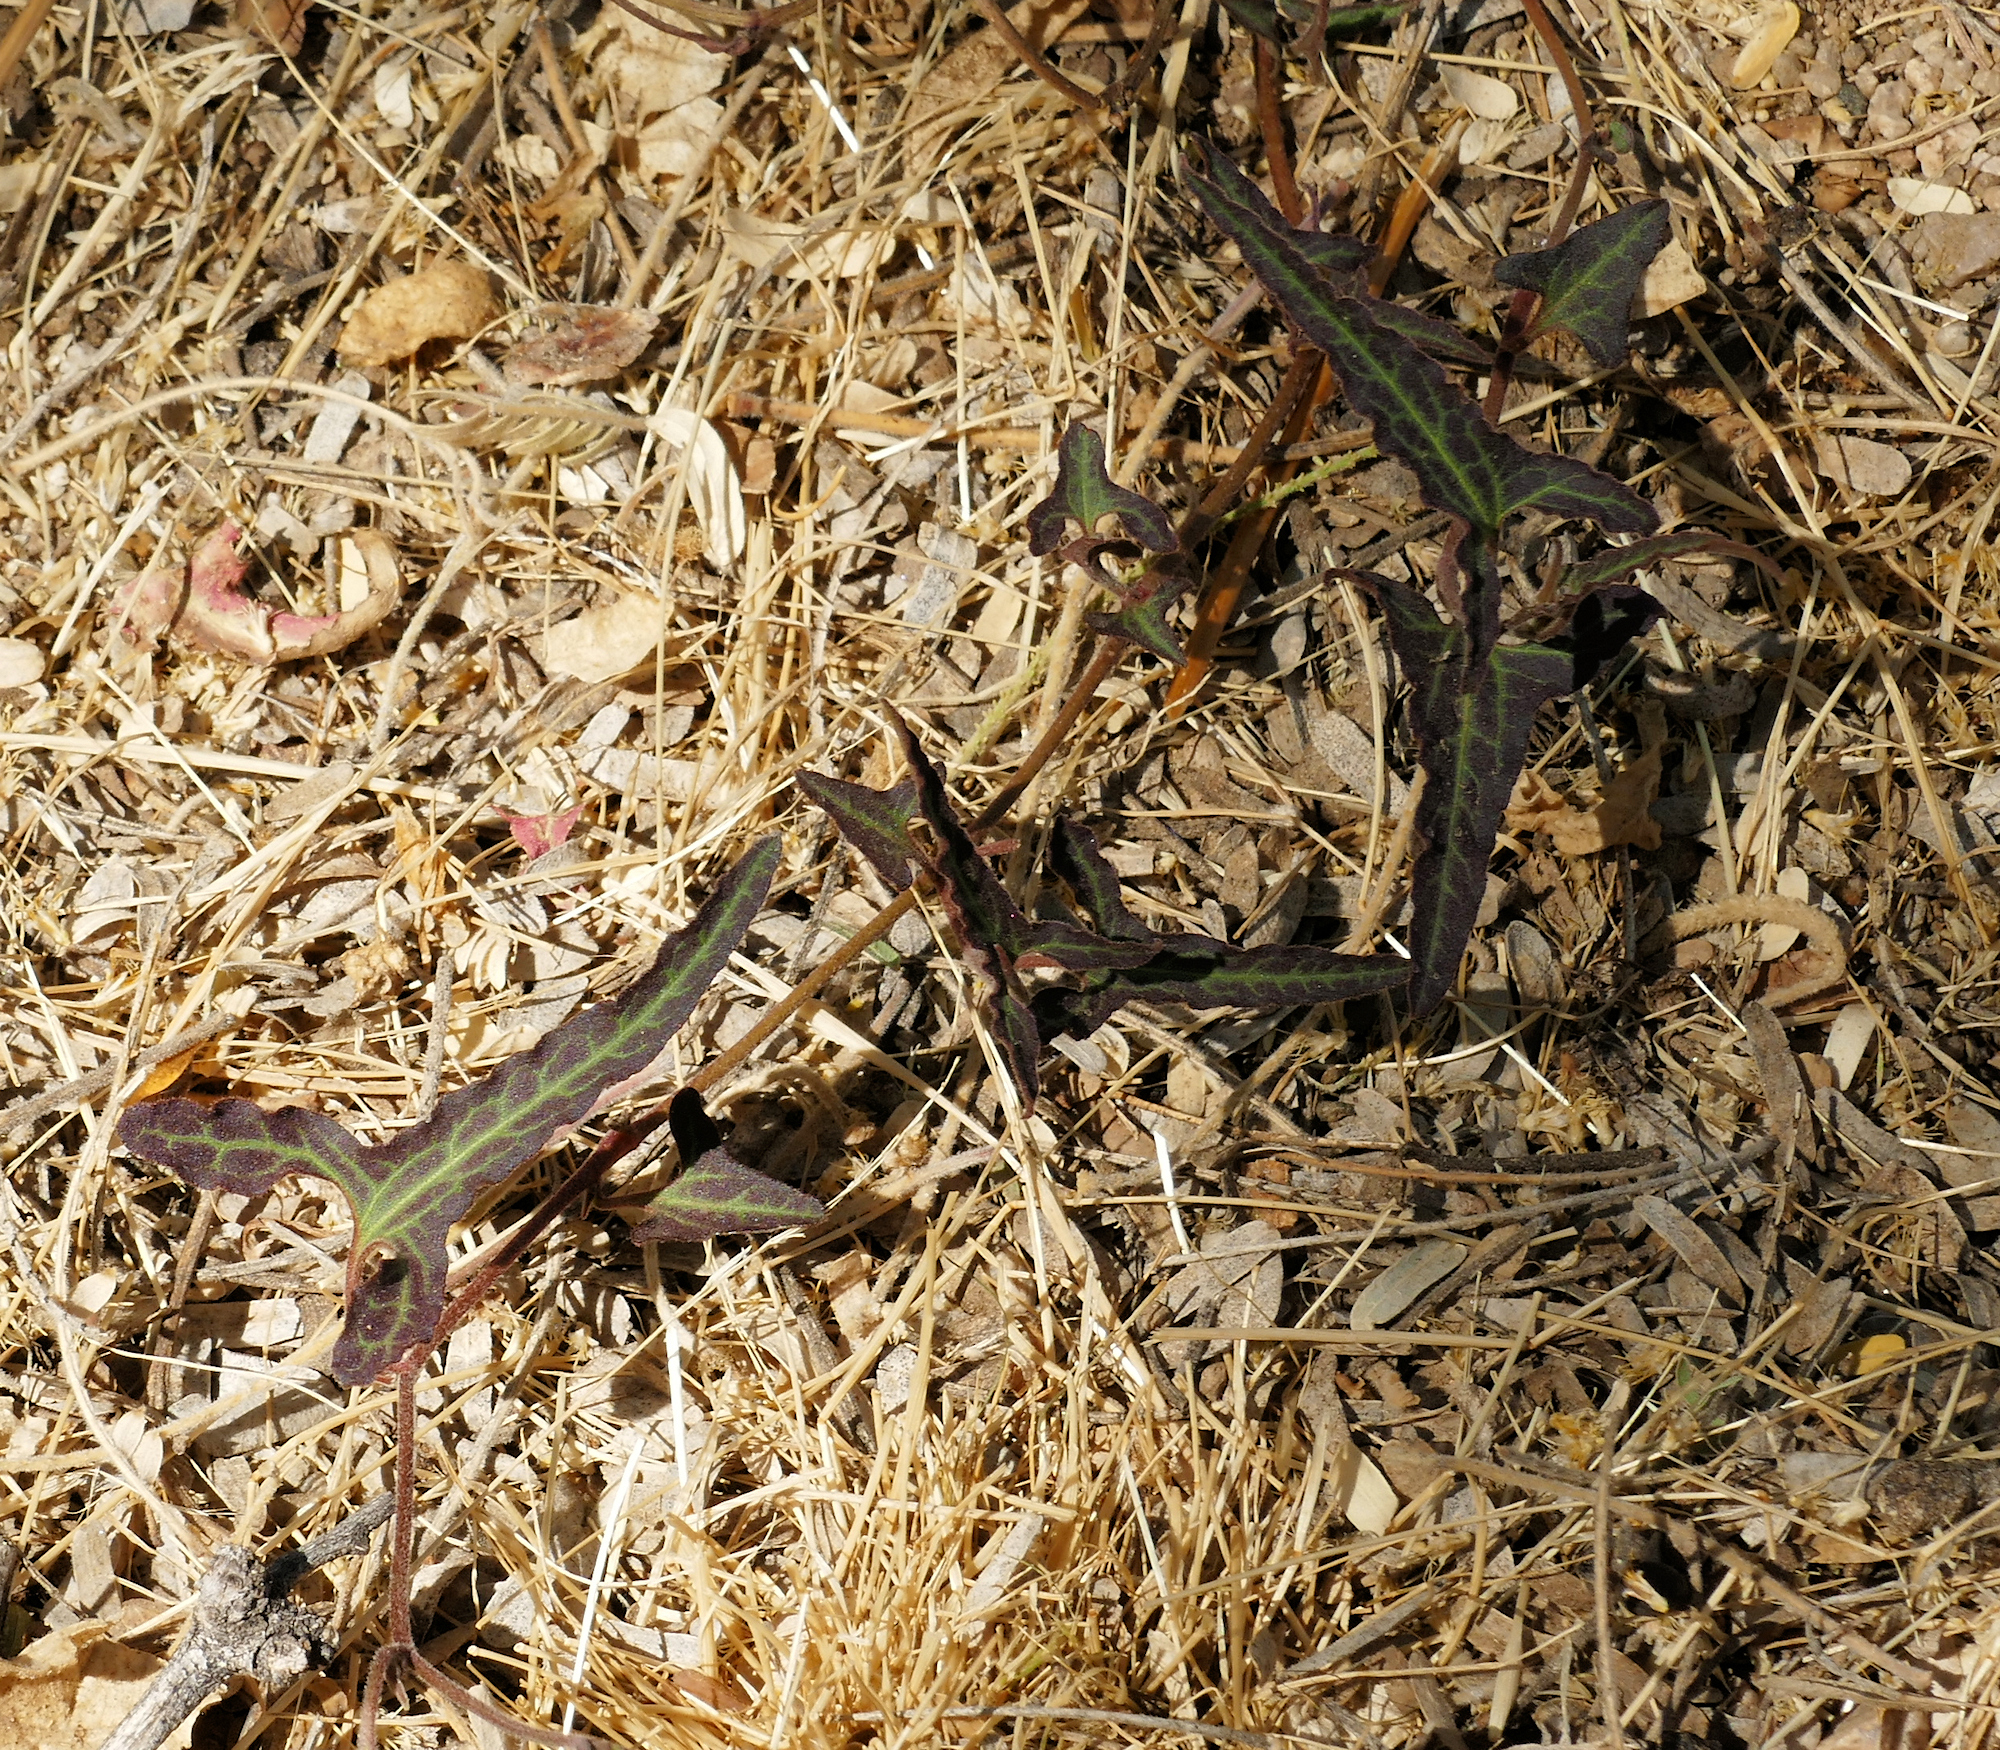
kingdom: Plantae
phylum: Tracheophyta
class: Magnoliopsida
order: Piperales
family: Aristolochiaceae
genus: Aristolochia
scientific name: Aristolochia watsonii
